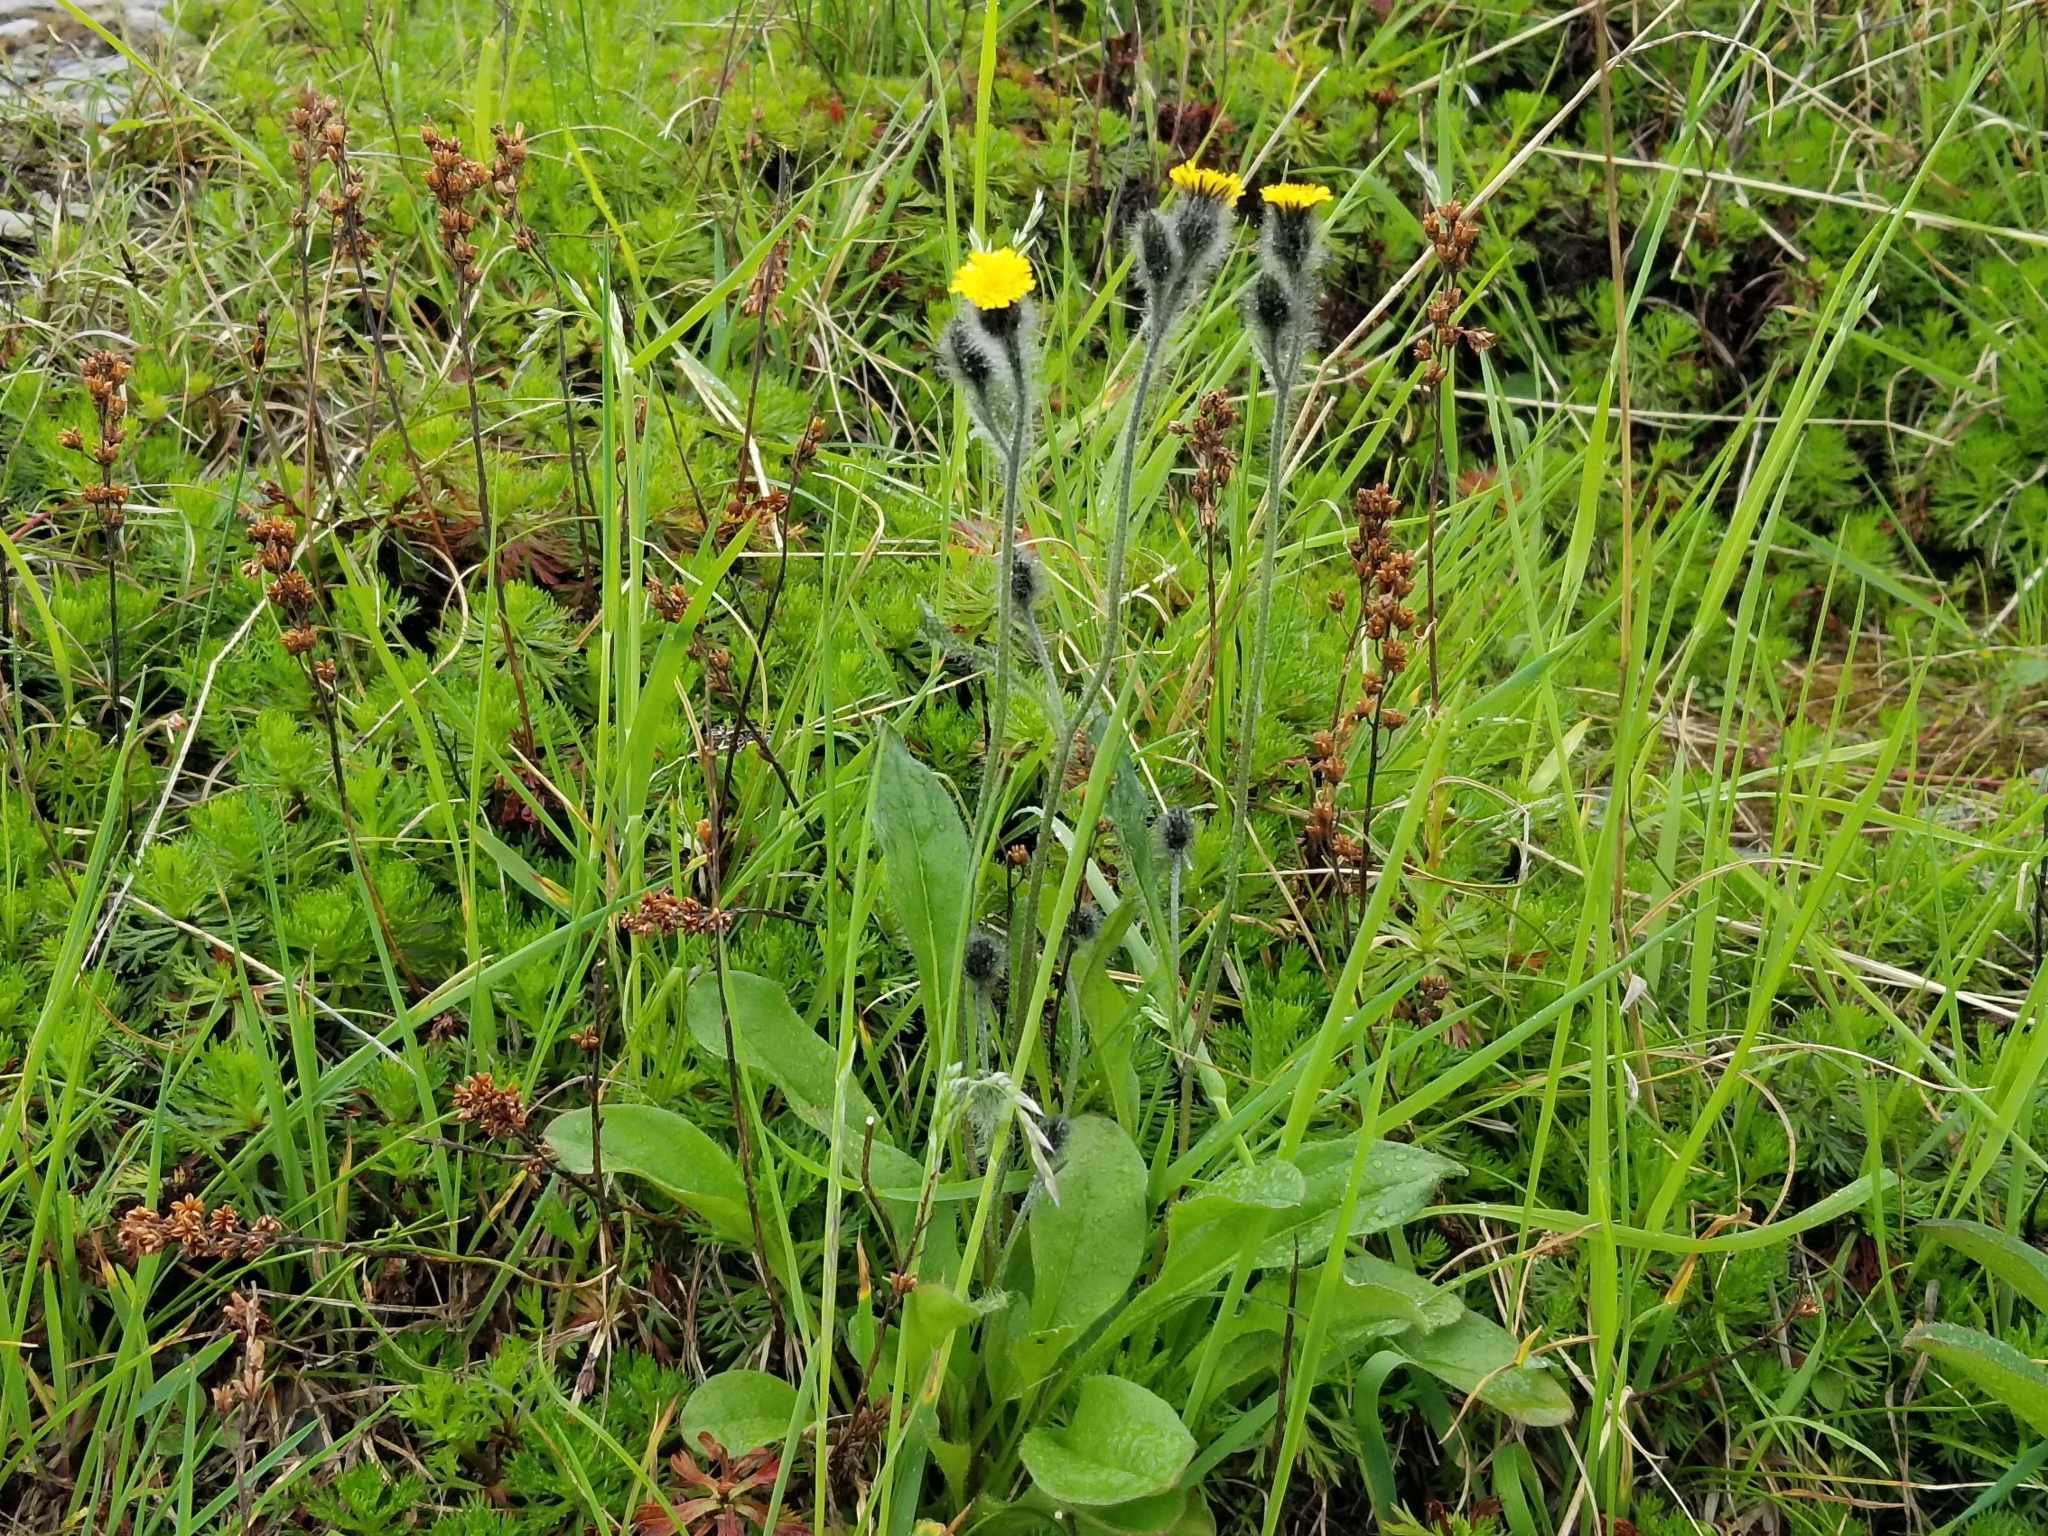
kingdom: Plantae
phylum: Tracheophyta
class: Magnoliopsida
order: Asterales
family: Asteraceae
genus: Hieracium
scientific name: Hieracium triste
